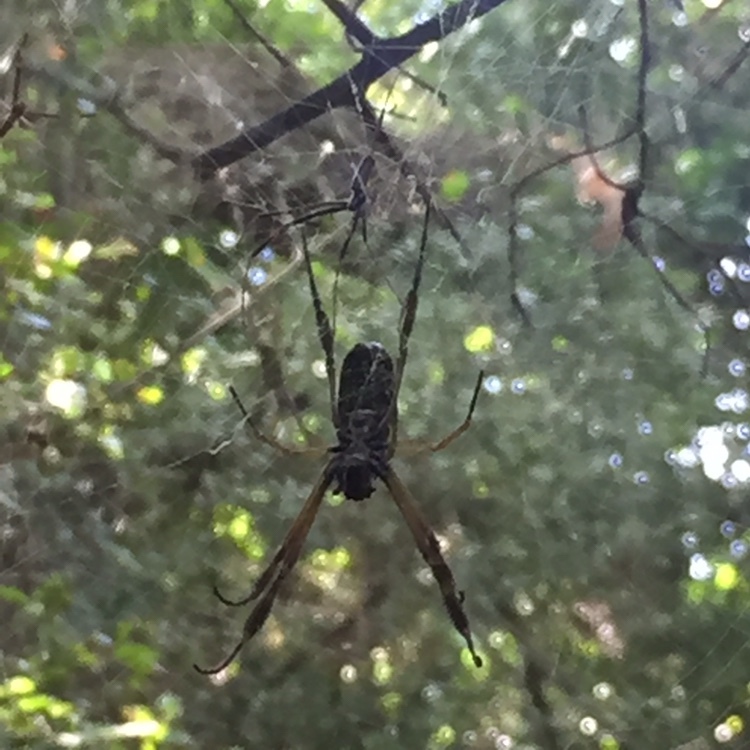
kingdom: Animalia
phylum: Arthropoda
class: Arachnida
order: Araneae
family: Araneidae
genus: Trichonephila
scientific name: Trichonephila clavipes
